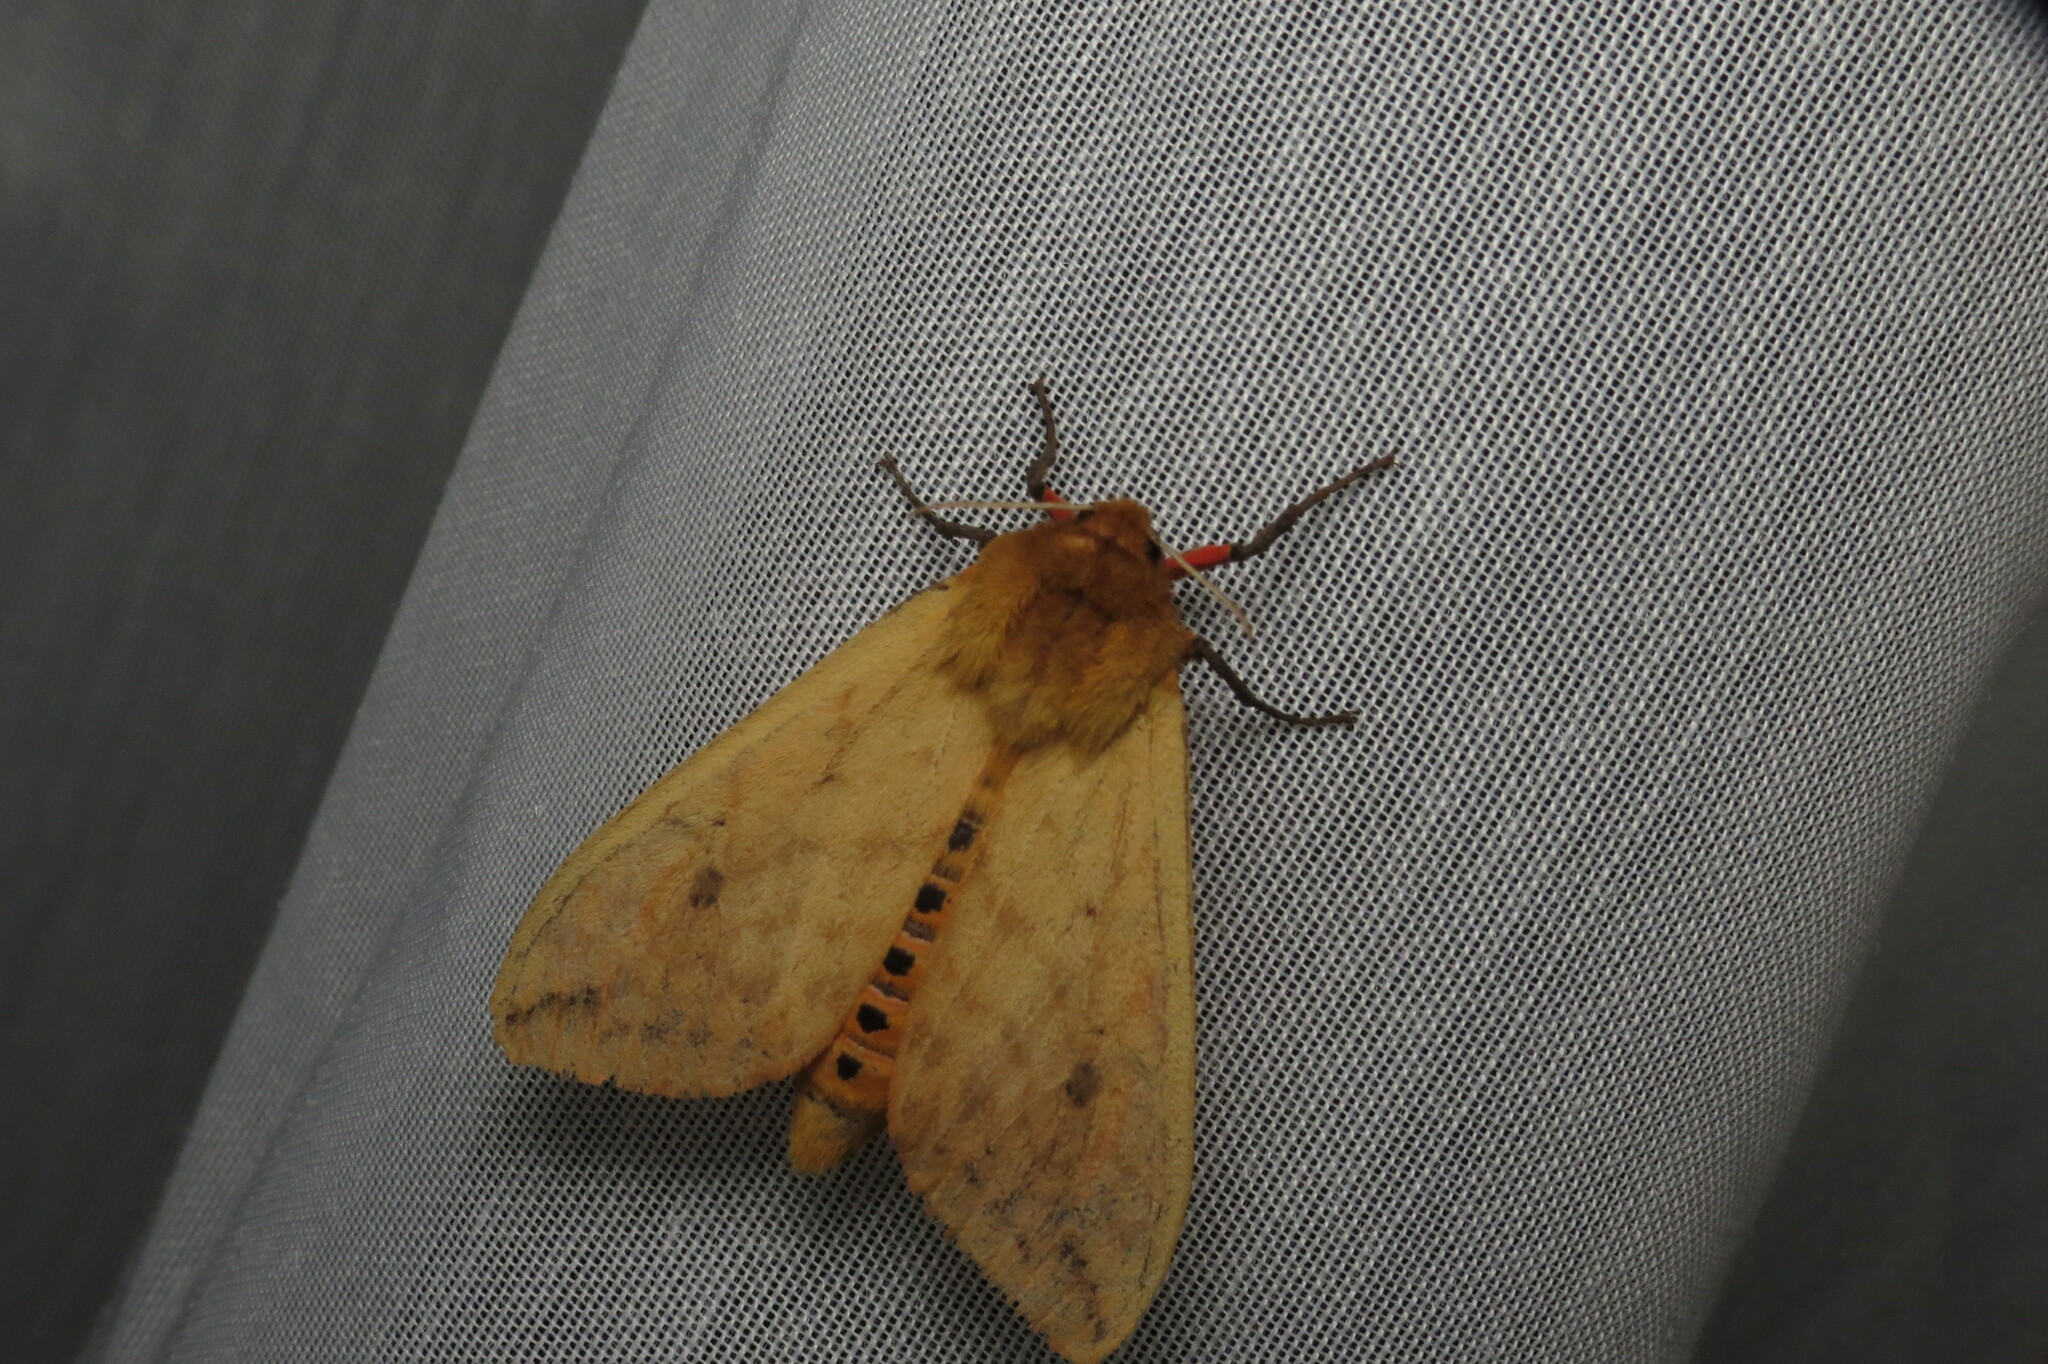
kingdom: Animalia
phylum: Arthropoda
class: Insecta
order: Lepidoptera
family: Erebidae
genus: Pyrrharctia
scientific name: Pyrrharctia isabella
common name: Isabella tiger moth
